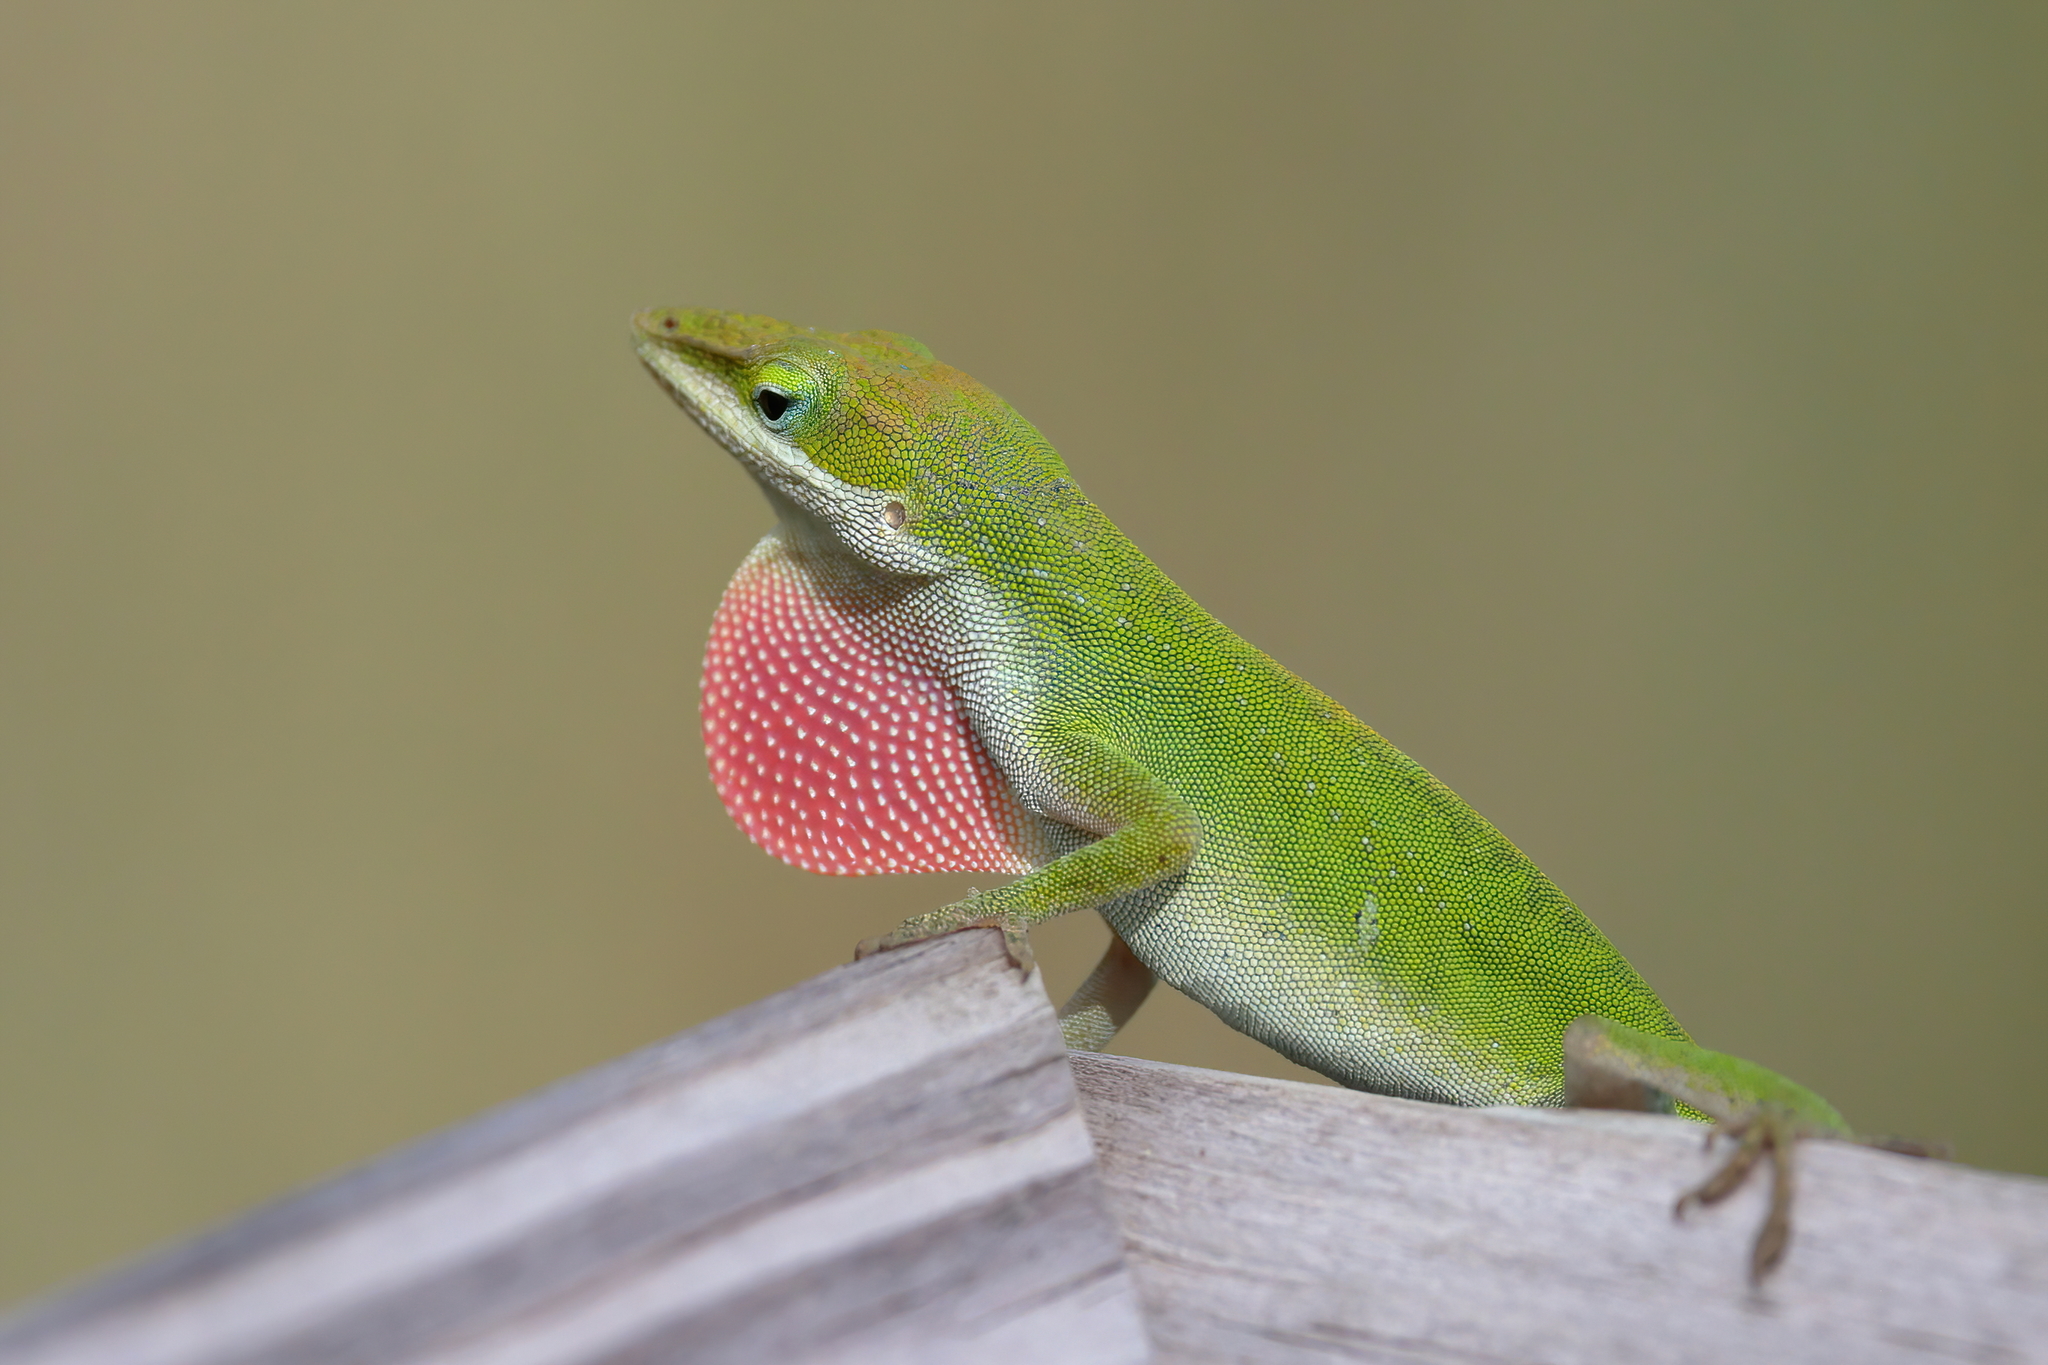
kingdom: Animalia
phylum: Chordata
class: Squamata
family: Dactyloidae
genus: Anolis
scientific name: Anolis carolinensis
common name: Green anole
